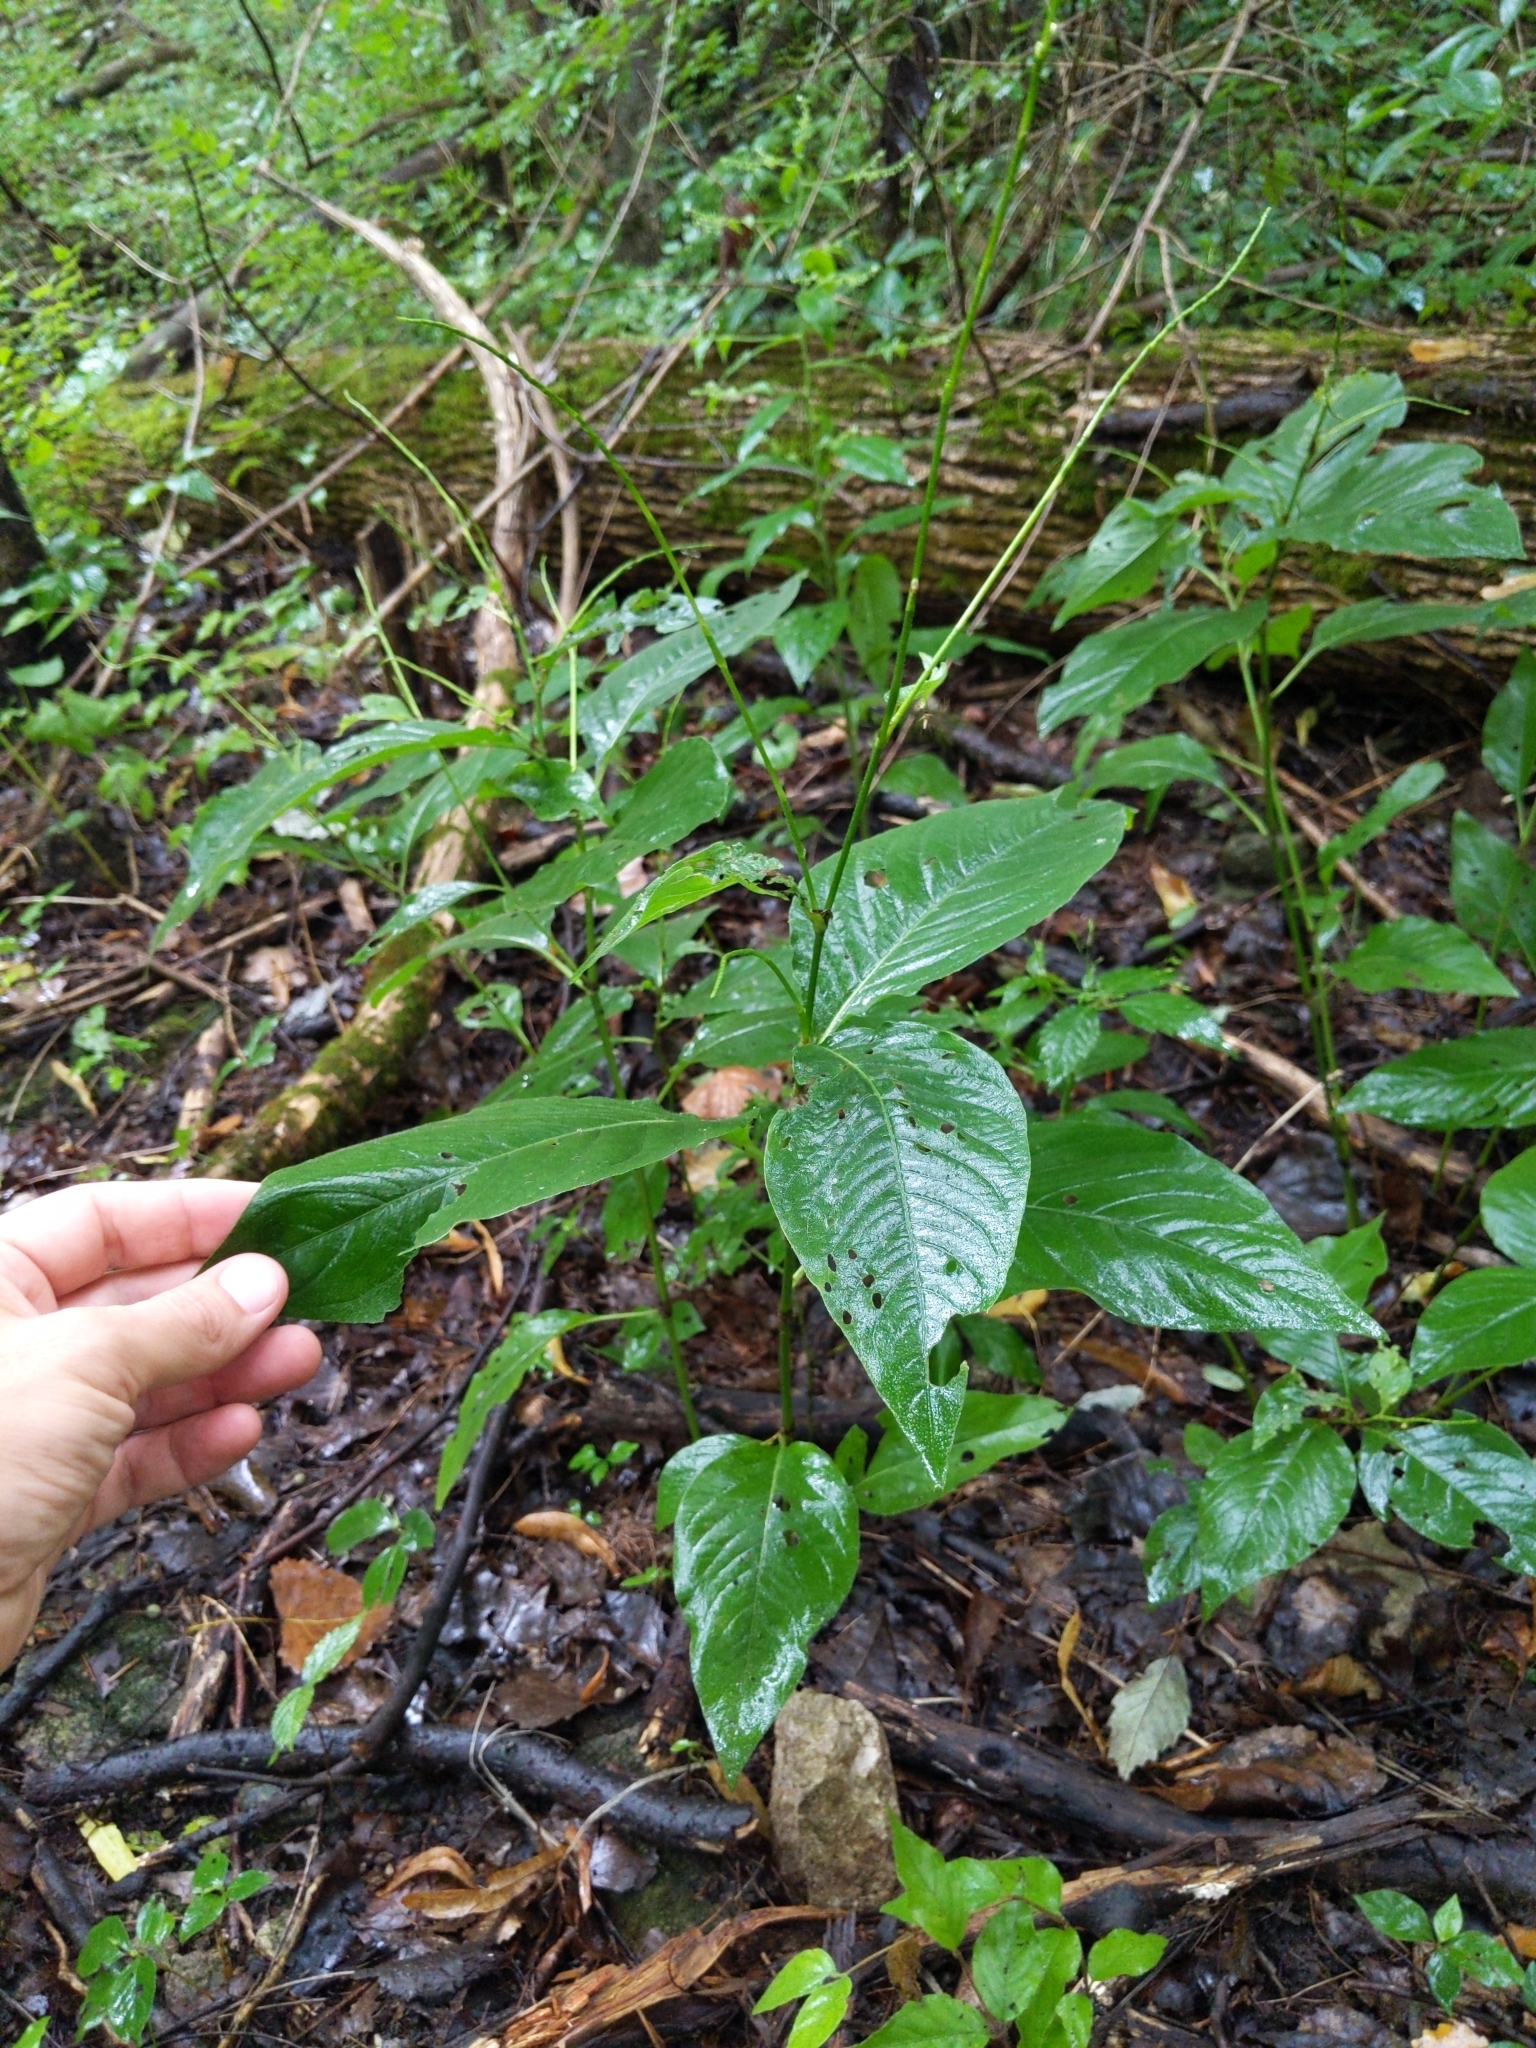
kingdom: Plantae
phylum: Tracheophyta
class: Magnoliopsida
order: Caryophyllales
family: Polygonaceae
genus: Persicaria
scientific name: Persicaria virginiana
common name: Jumpseed
